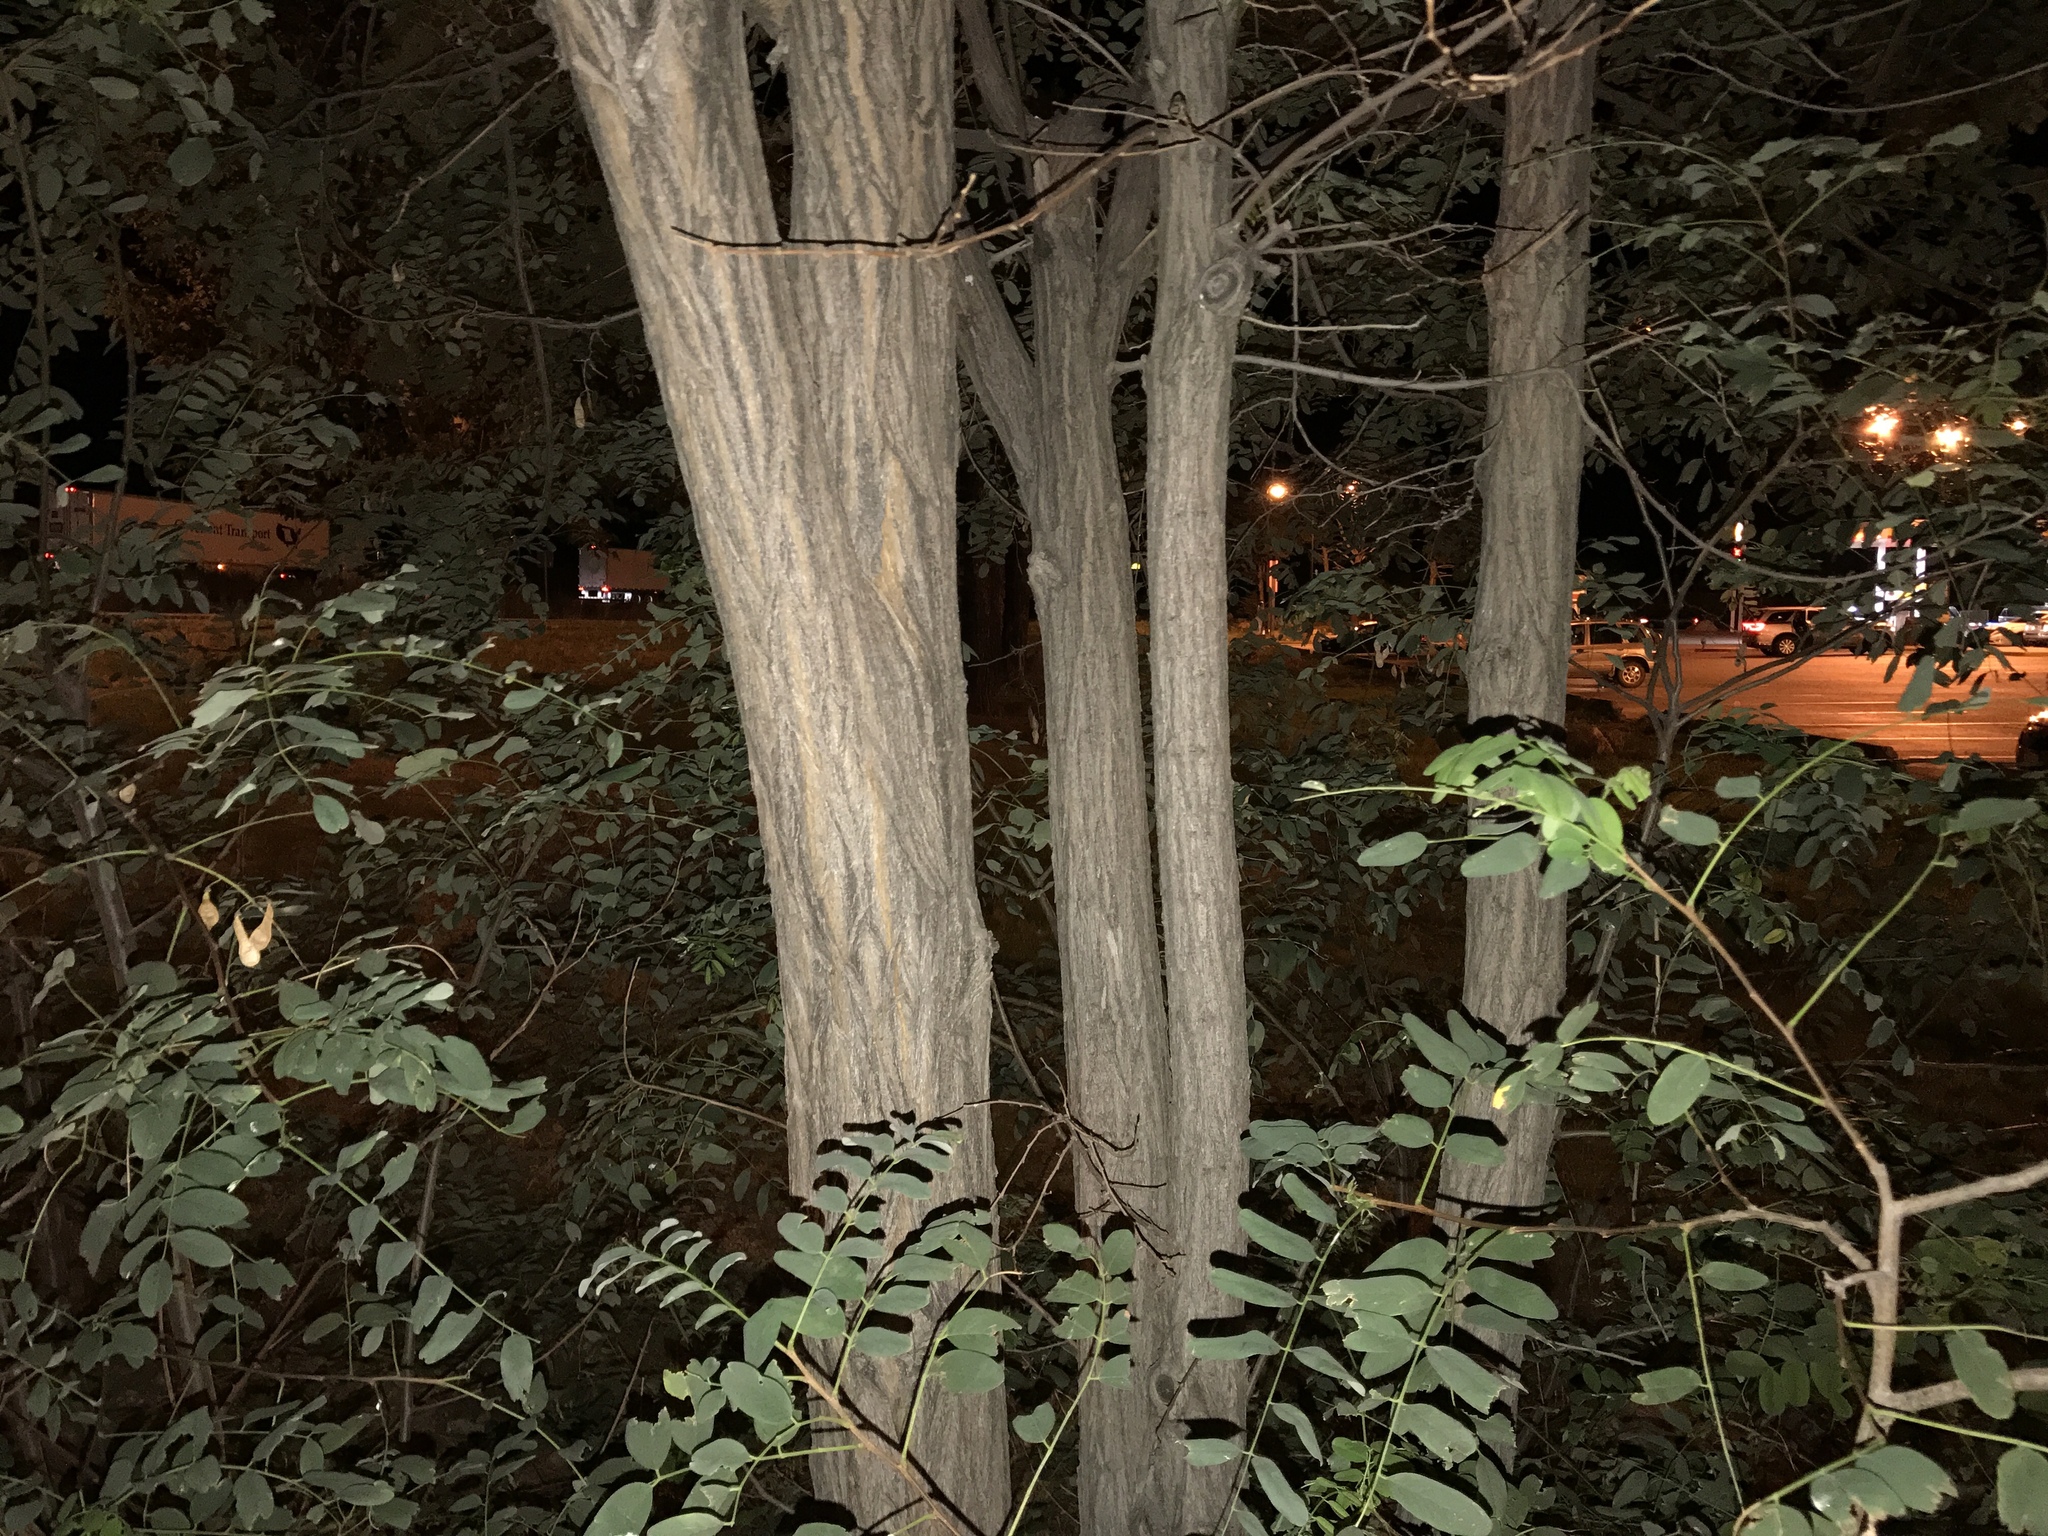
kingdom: Plantae
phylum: Tracheophyta
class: Magnoliopsida
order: Fabales
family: Fabaceae
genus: Robinia
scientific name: Robinia pseudoacacia
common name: Black locust
